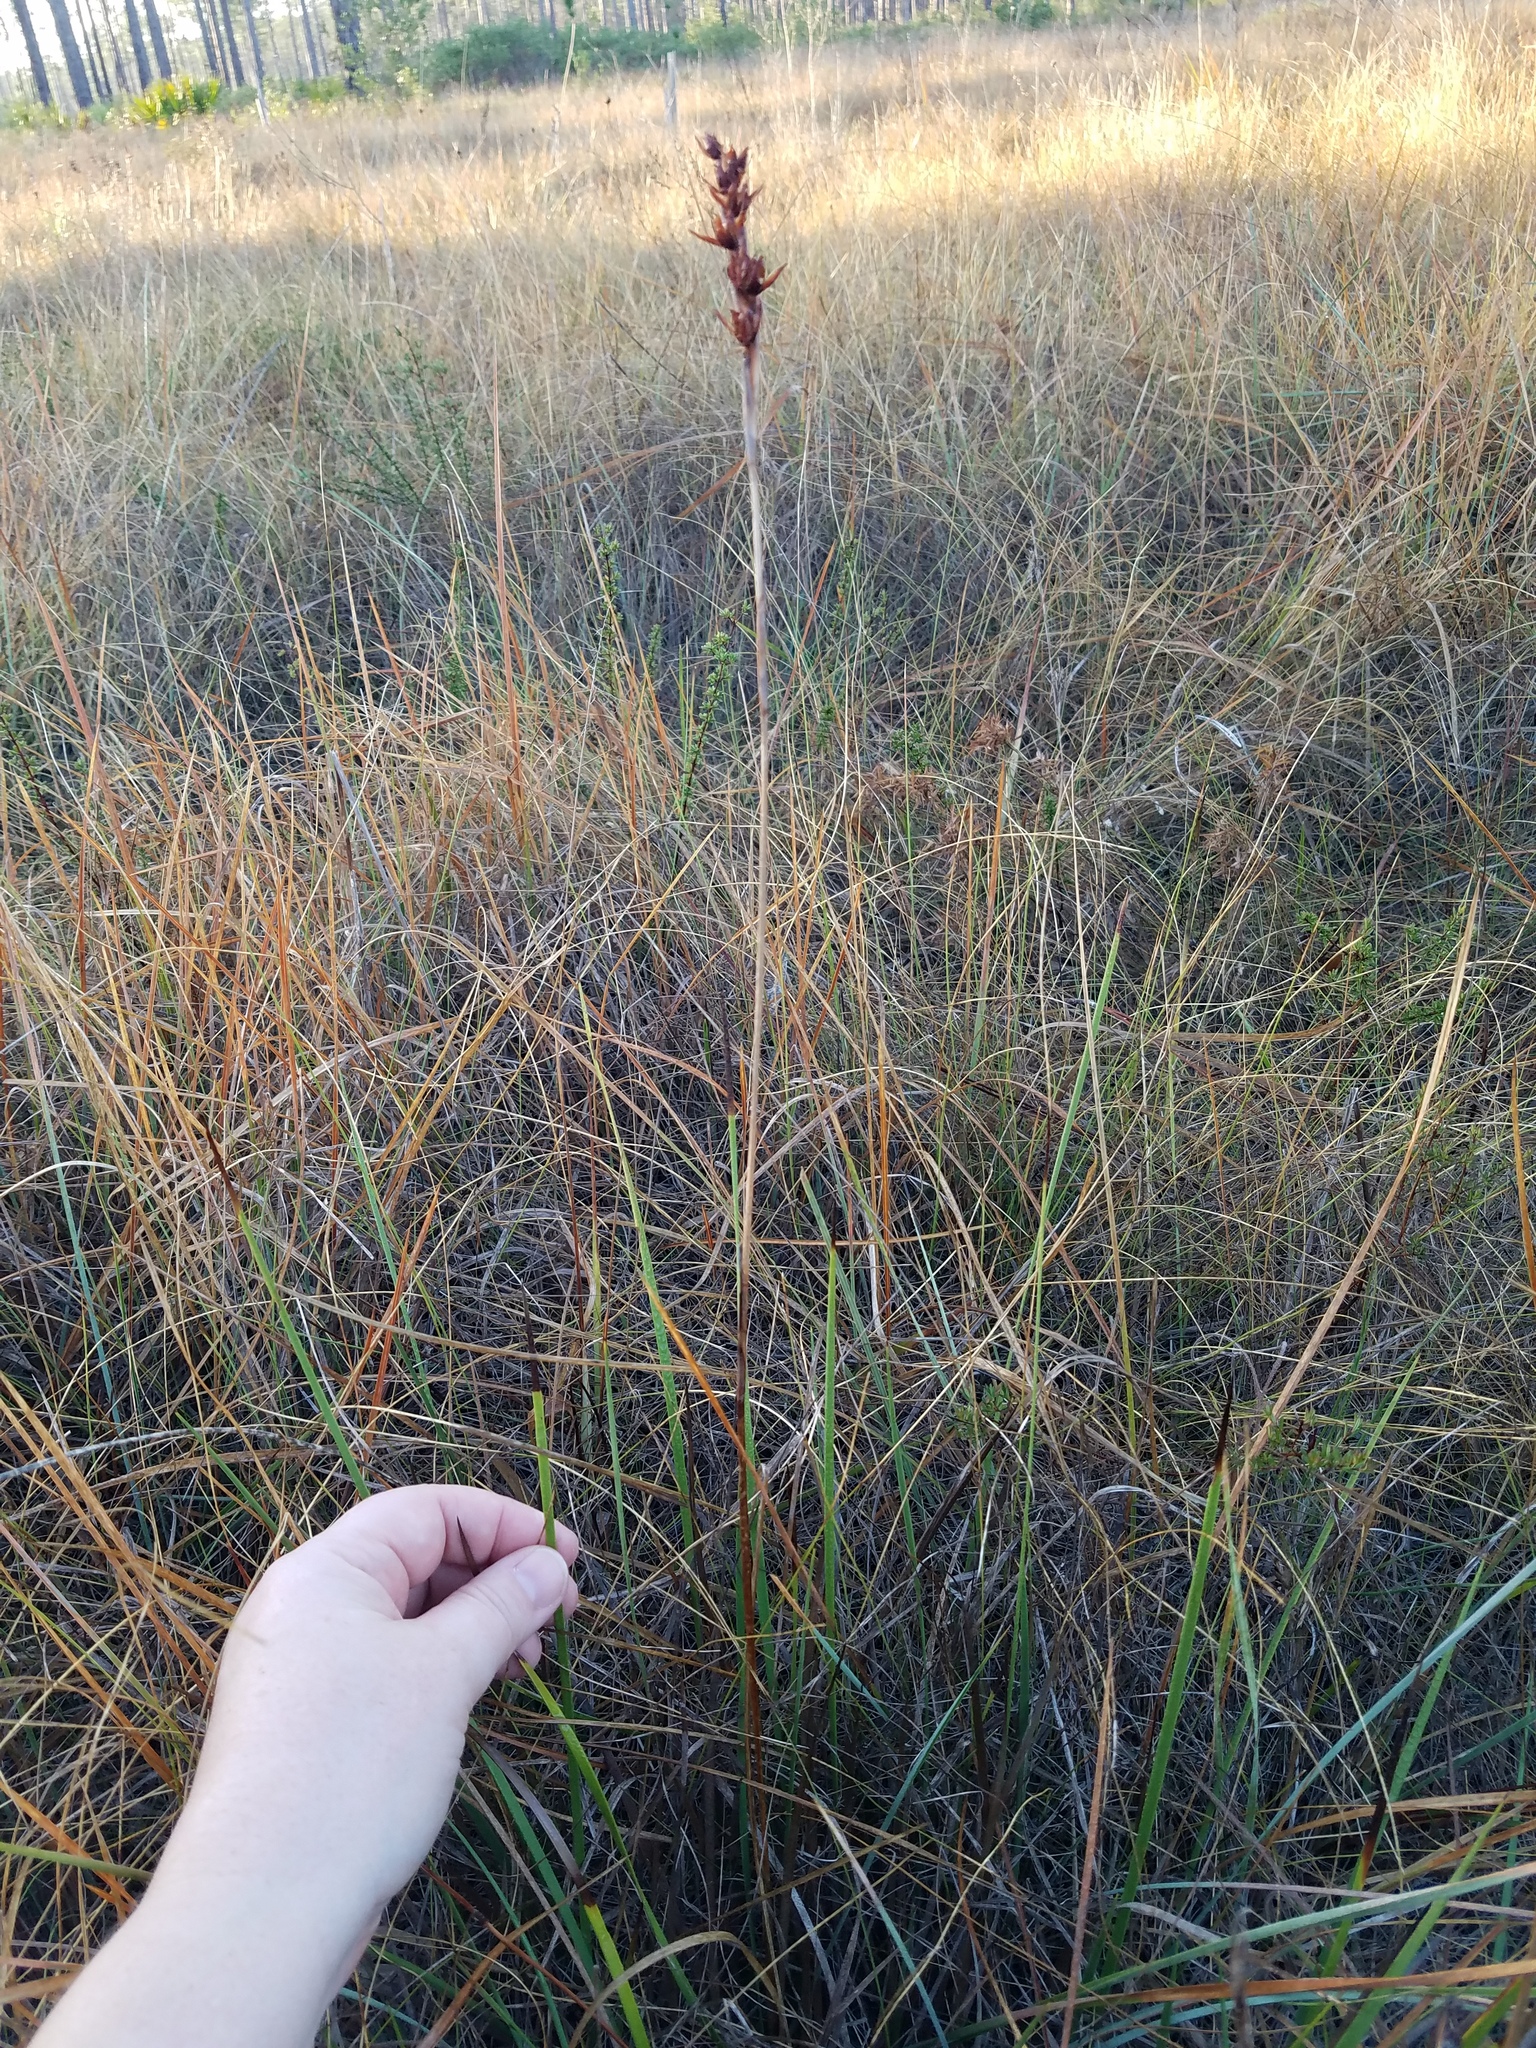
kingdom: Plantae
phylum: Tracheophyta
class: Liliopsida
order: Alismatales
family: Tofieldiaceae
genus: Pleea
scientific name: Pleea tenuifolia
